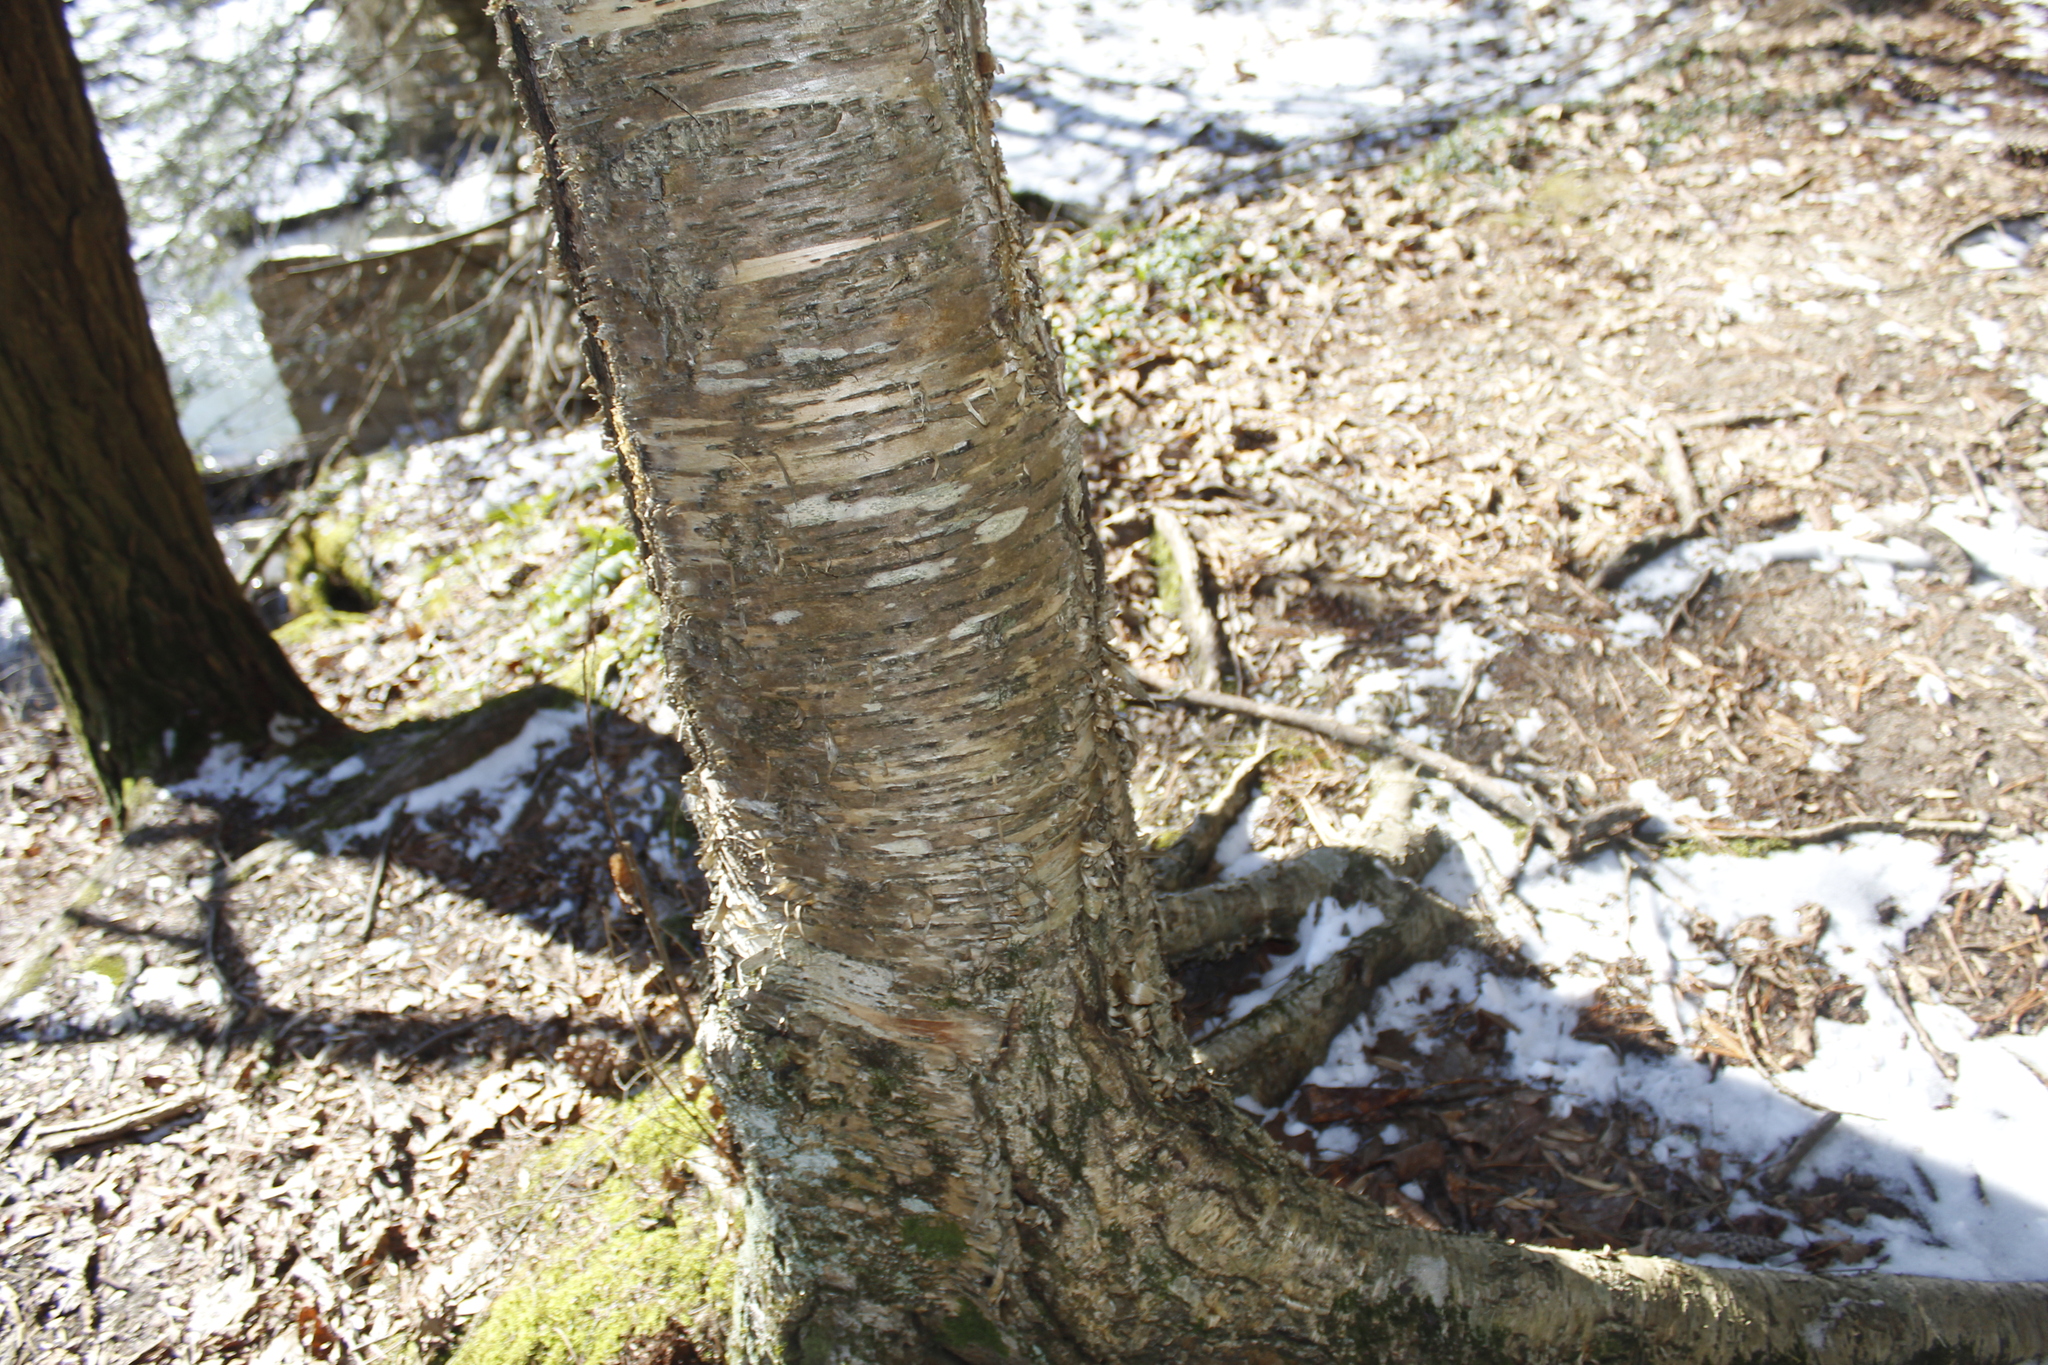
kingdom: Plantae
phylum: Tracheophyta
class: Magnoliopsida
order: Fagales
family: Betulaceae
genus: Betula
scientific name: Betula alleghaniensis
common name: Yellow birch
